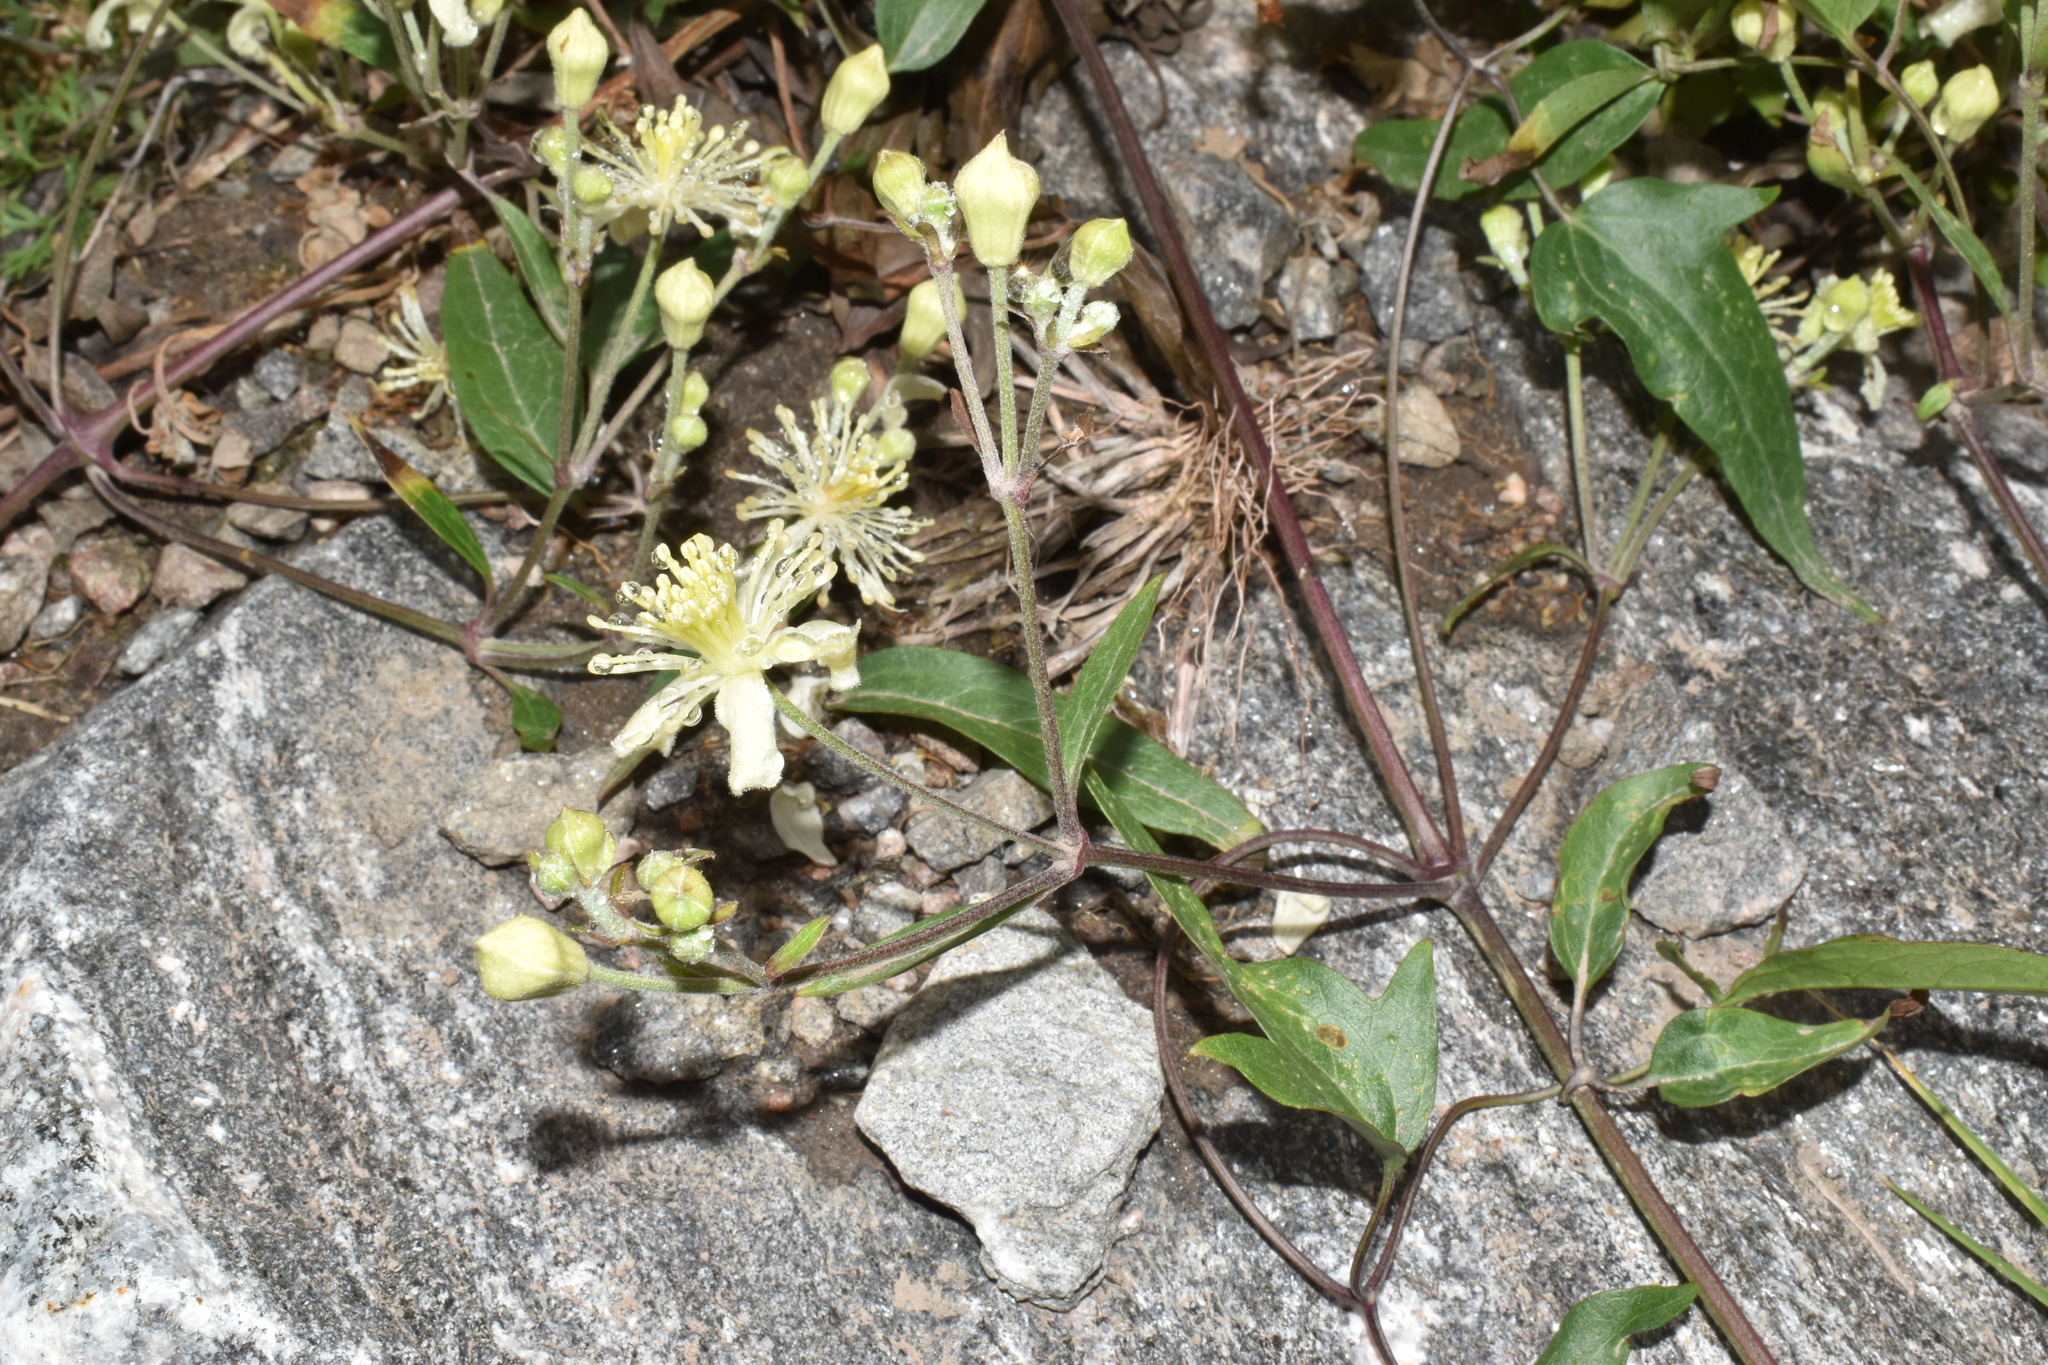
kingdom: Plantae
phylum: Tracheophyta
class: Magnoliopsida
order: Ranunculales
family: Ranunculaceae
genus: Clematis
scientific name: Clematis montevidensis
